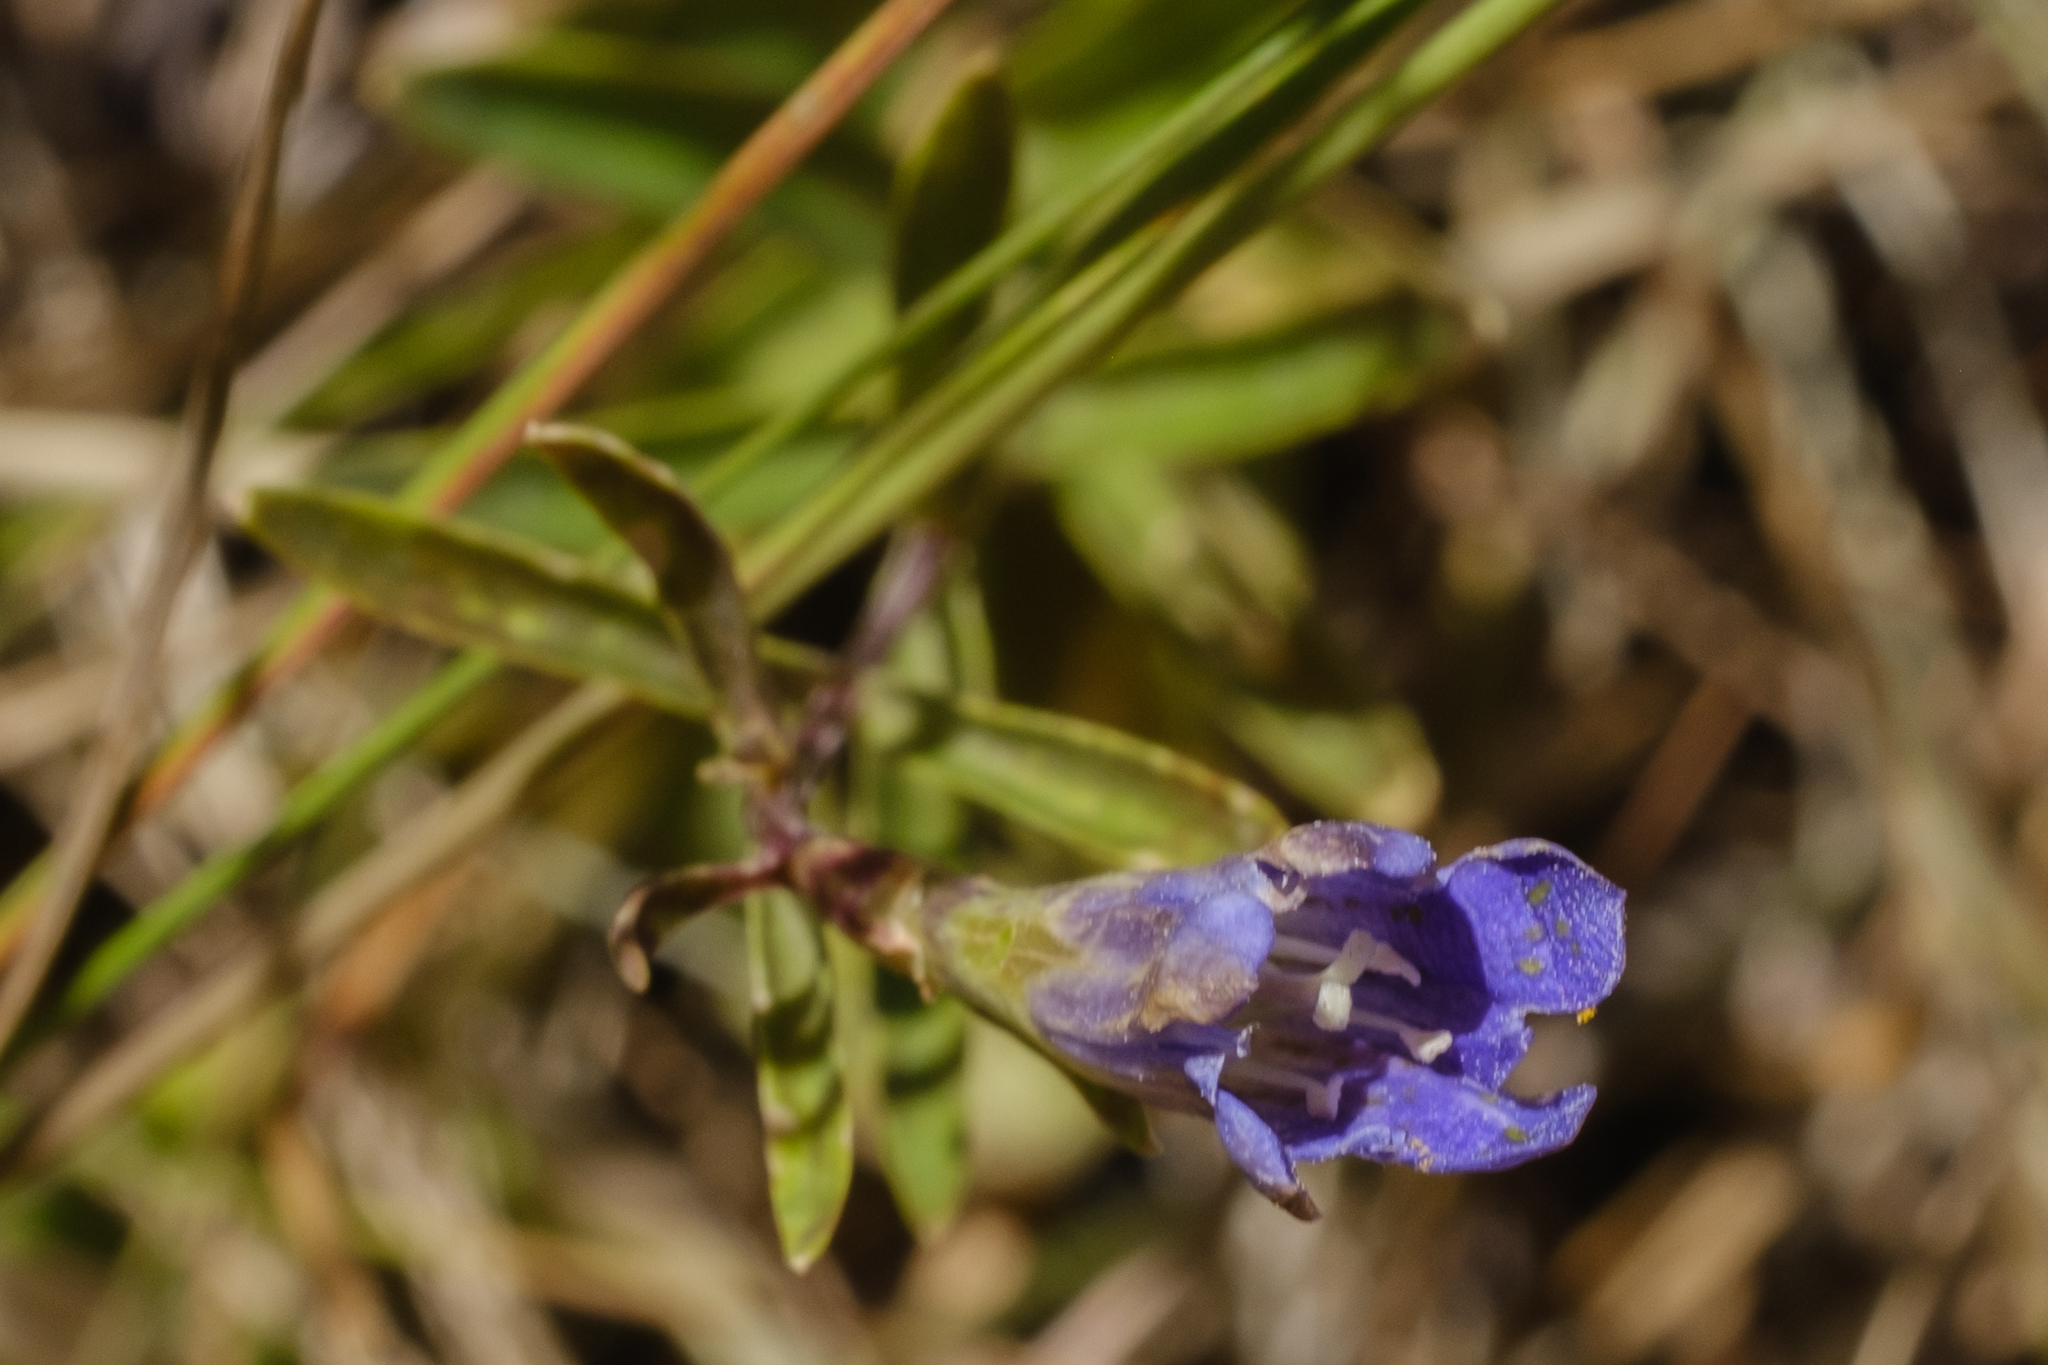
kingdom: Plantae
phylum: Tracheophyta
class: Magnoliopsida
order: Gentianales
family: Gentianaceae
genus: Gentiana
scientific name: Gentiana affinis
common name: Rocky mountain gentian
